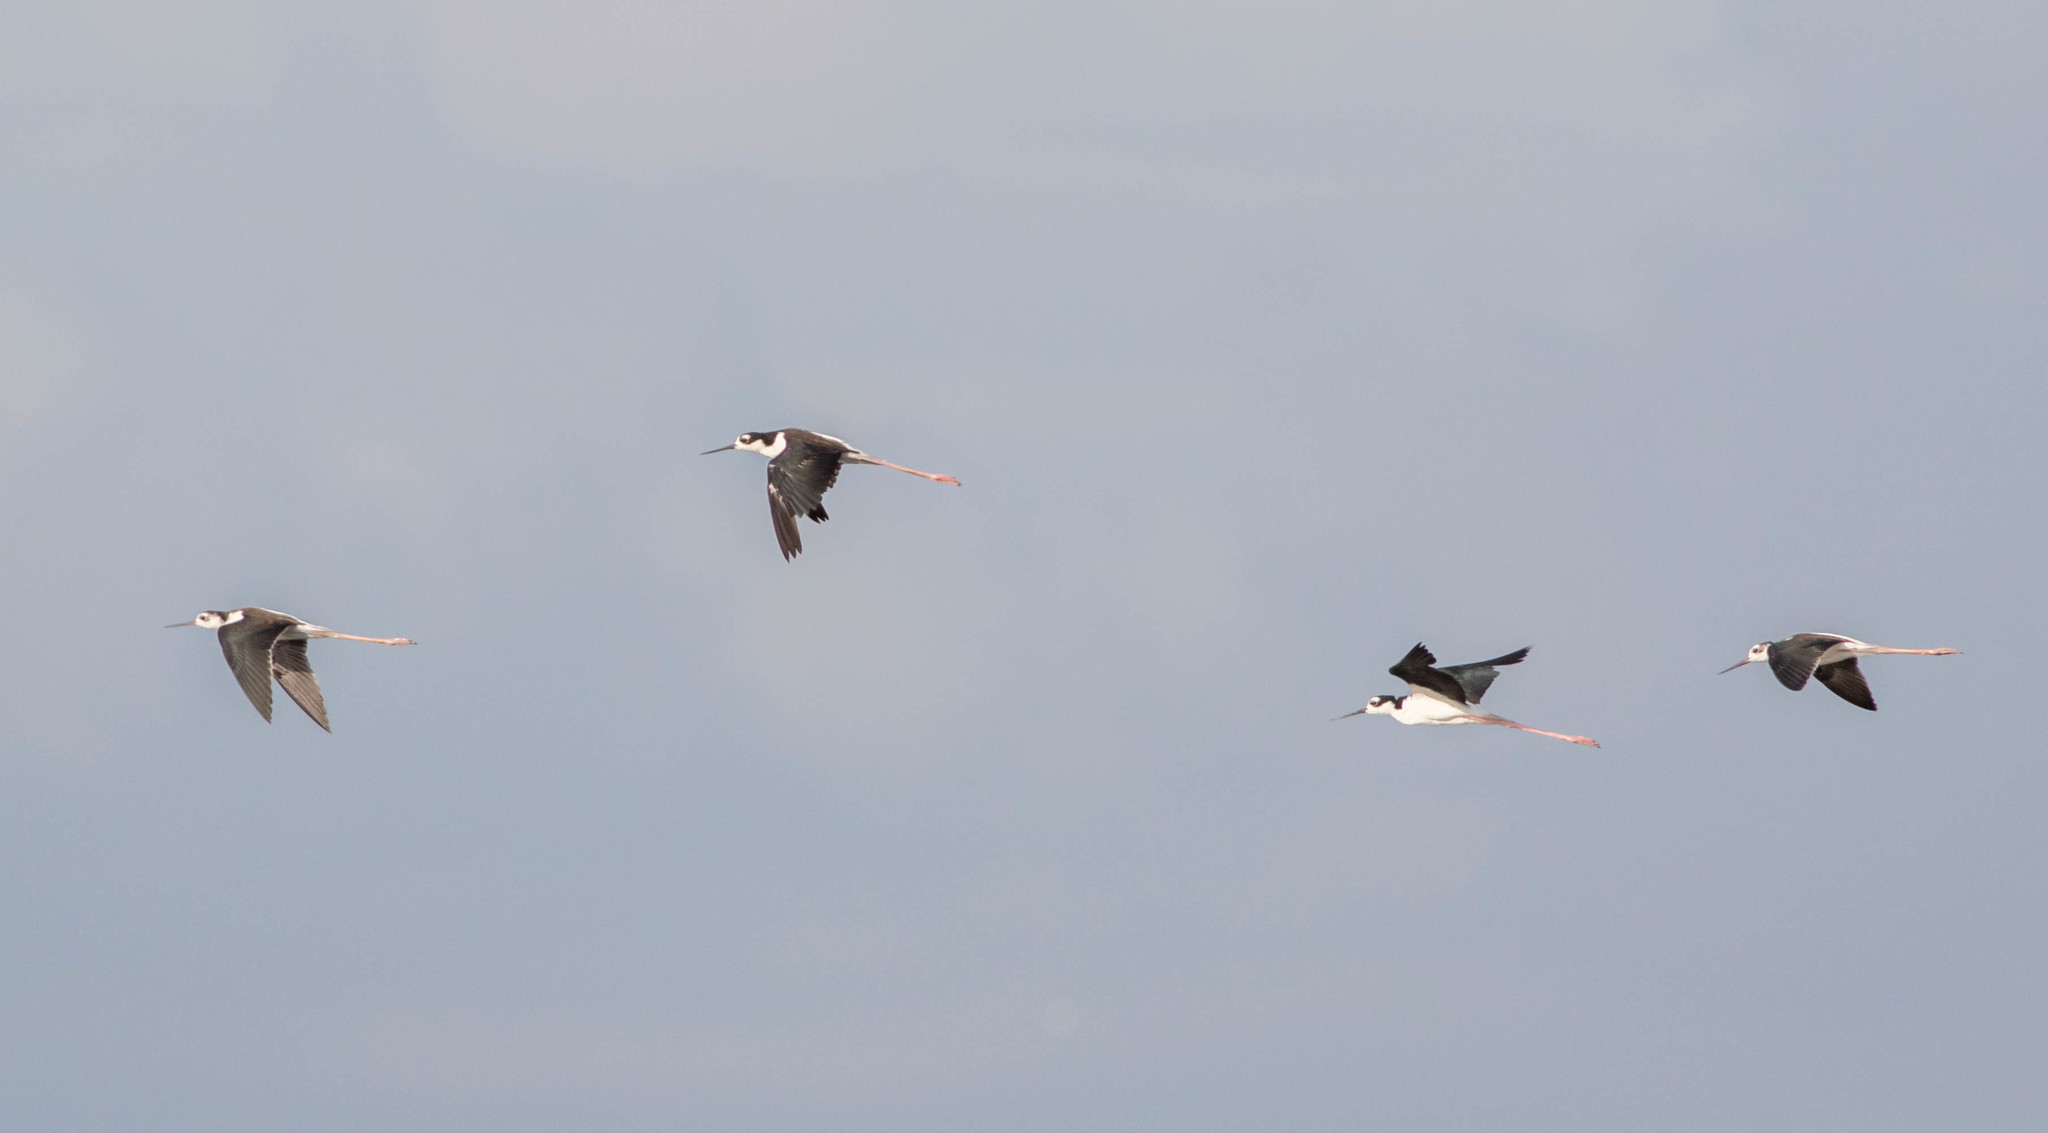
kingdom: Animalia
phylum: Chordata
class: Aves
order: Charadriiformes
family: Recurvirostridae
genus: Himantopus
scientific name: Himantopus mexicanus
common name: Black-necked stilt
